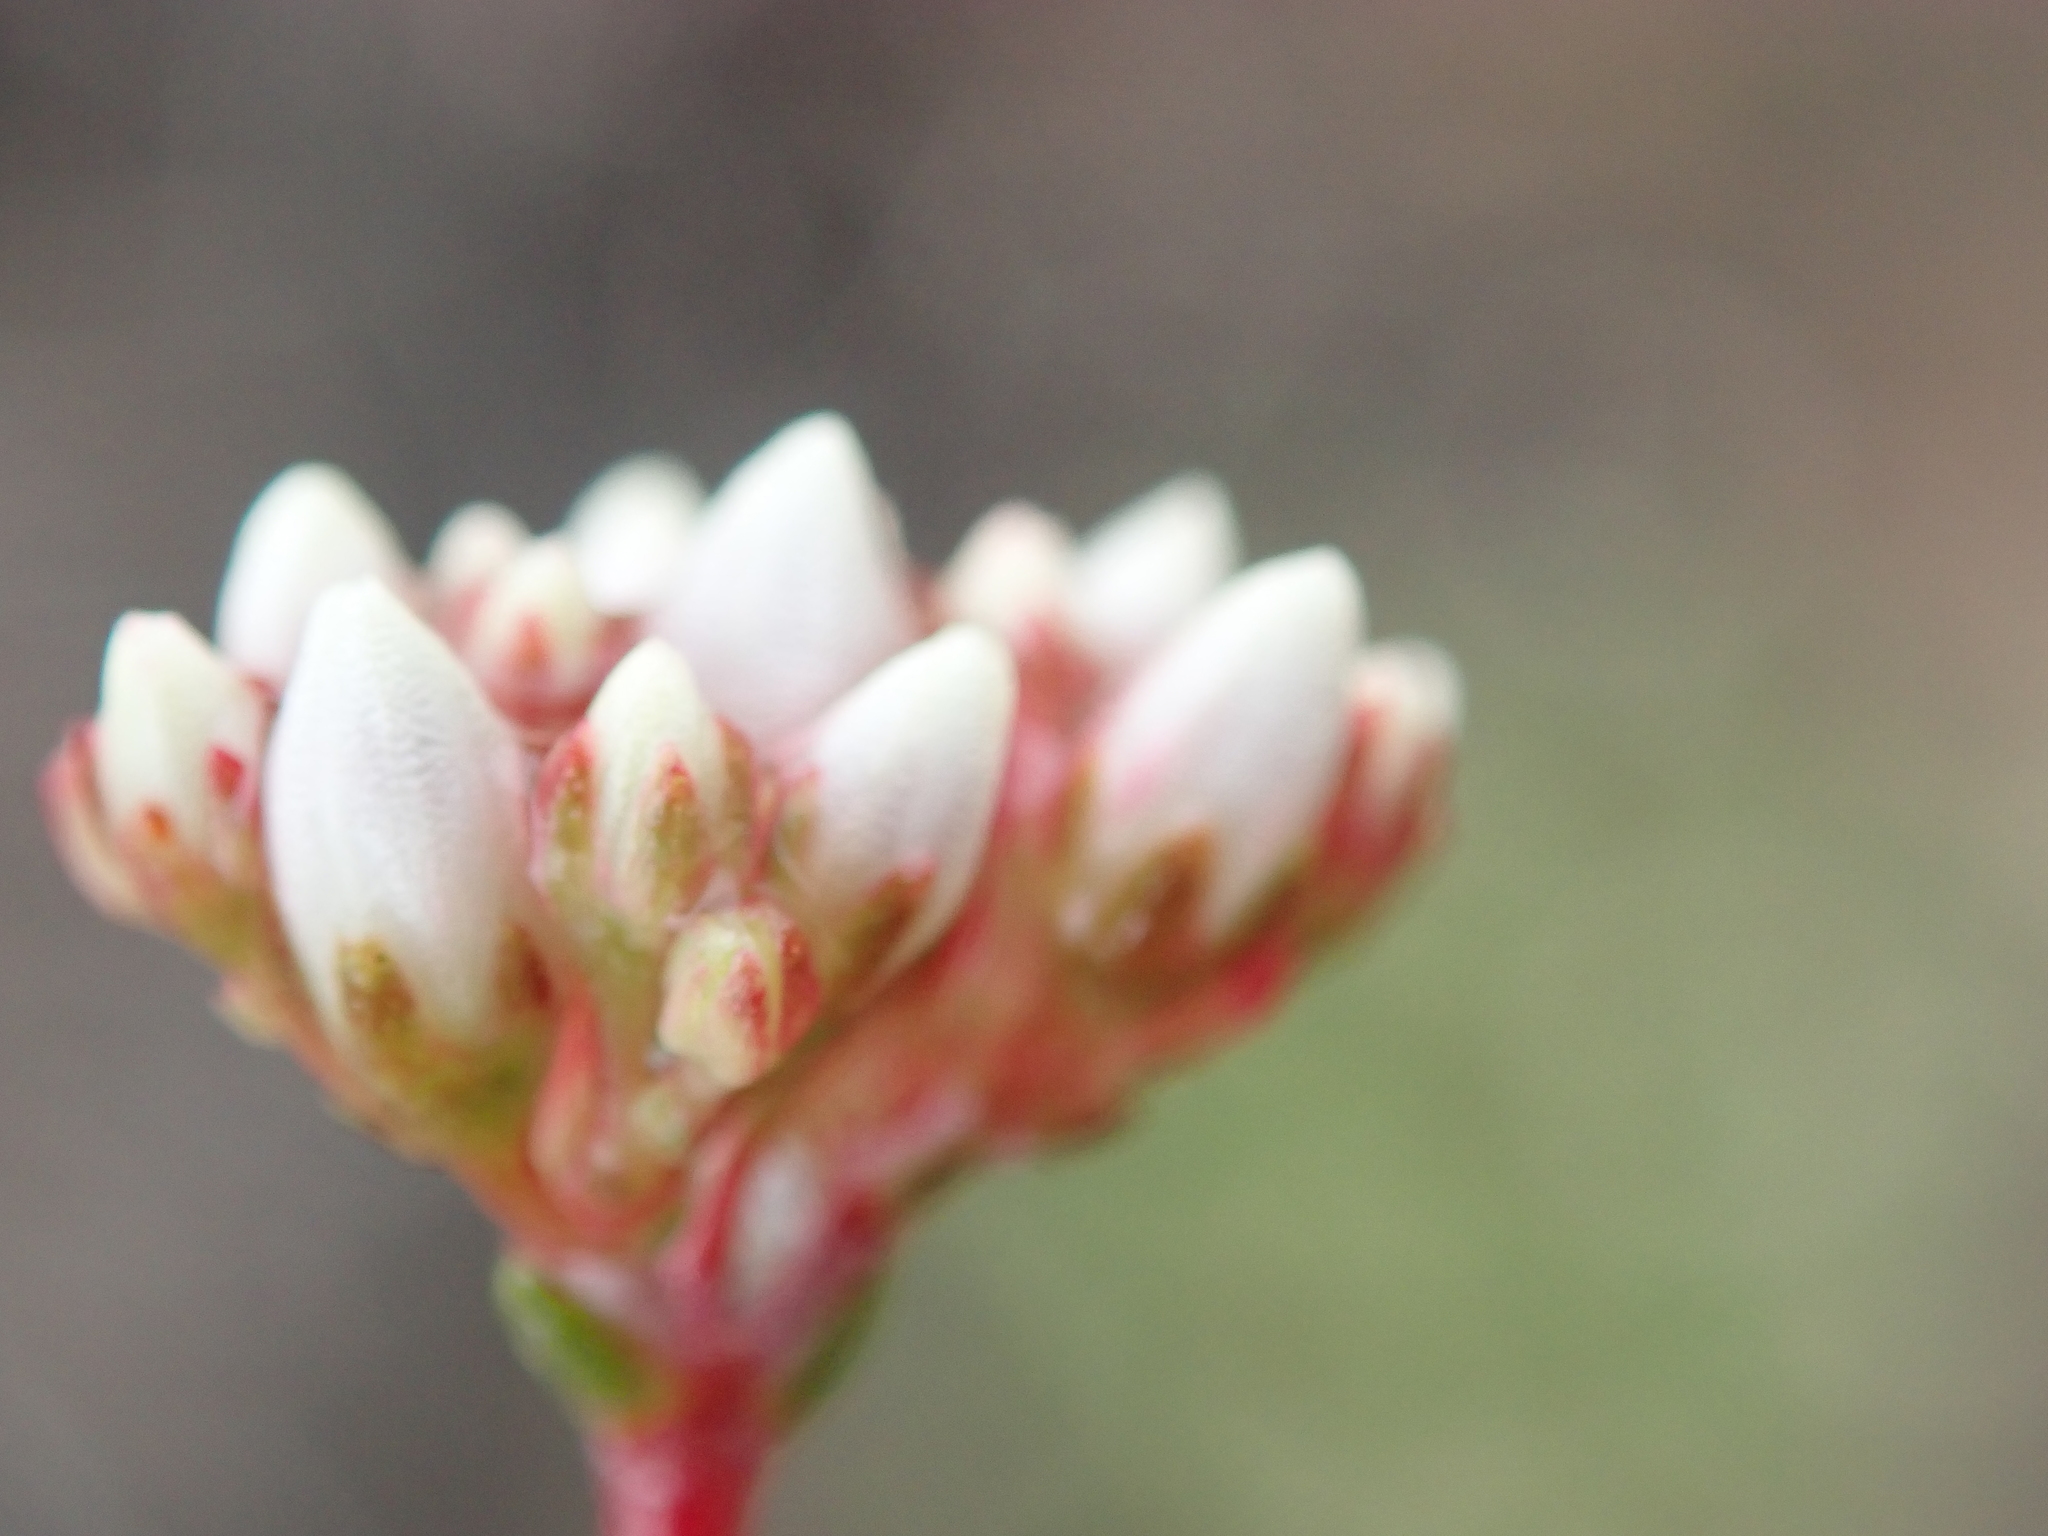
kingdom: Plantae
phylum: Tracheophyta
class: Magnoliopsida
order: Saxifragales
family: Crassulaceae
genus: Crassula
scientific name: Crassula biplanata
